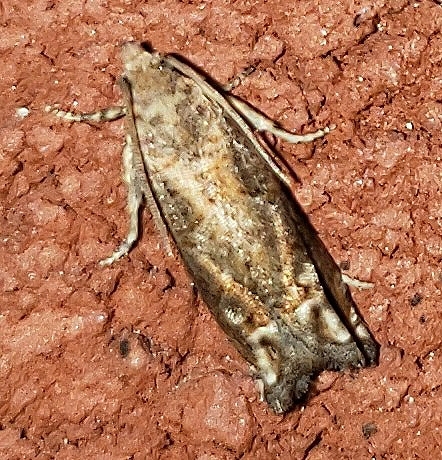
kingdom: Animalia
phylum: Arthropoda
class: Insecta
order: Lepidoptera
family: Tortricidae
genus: Epiblema
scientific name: Epiblema mandana
